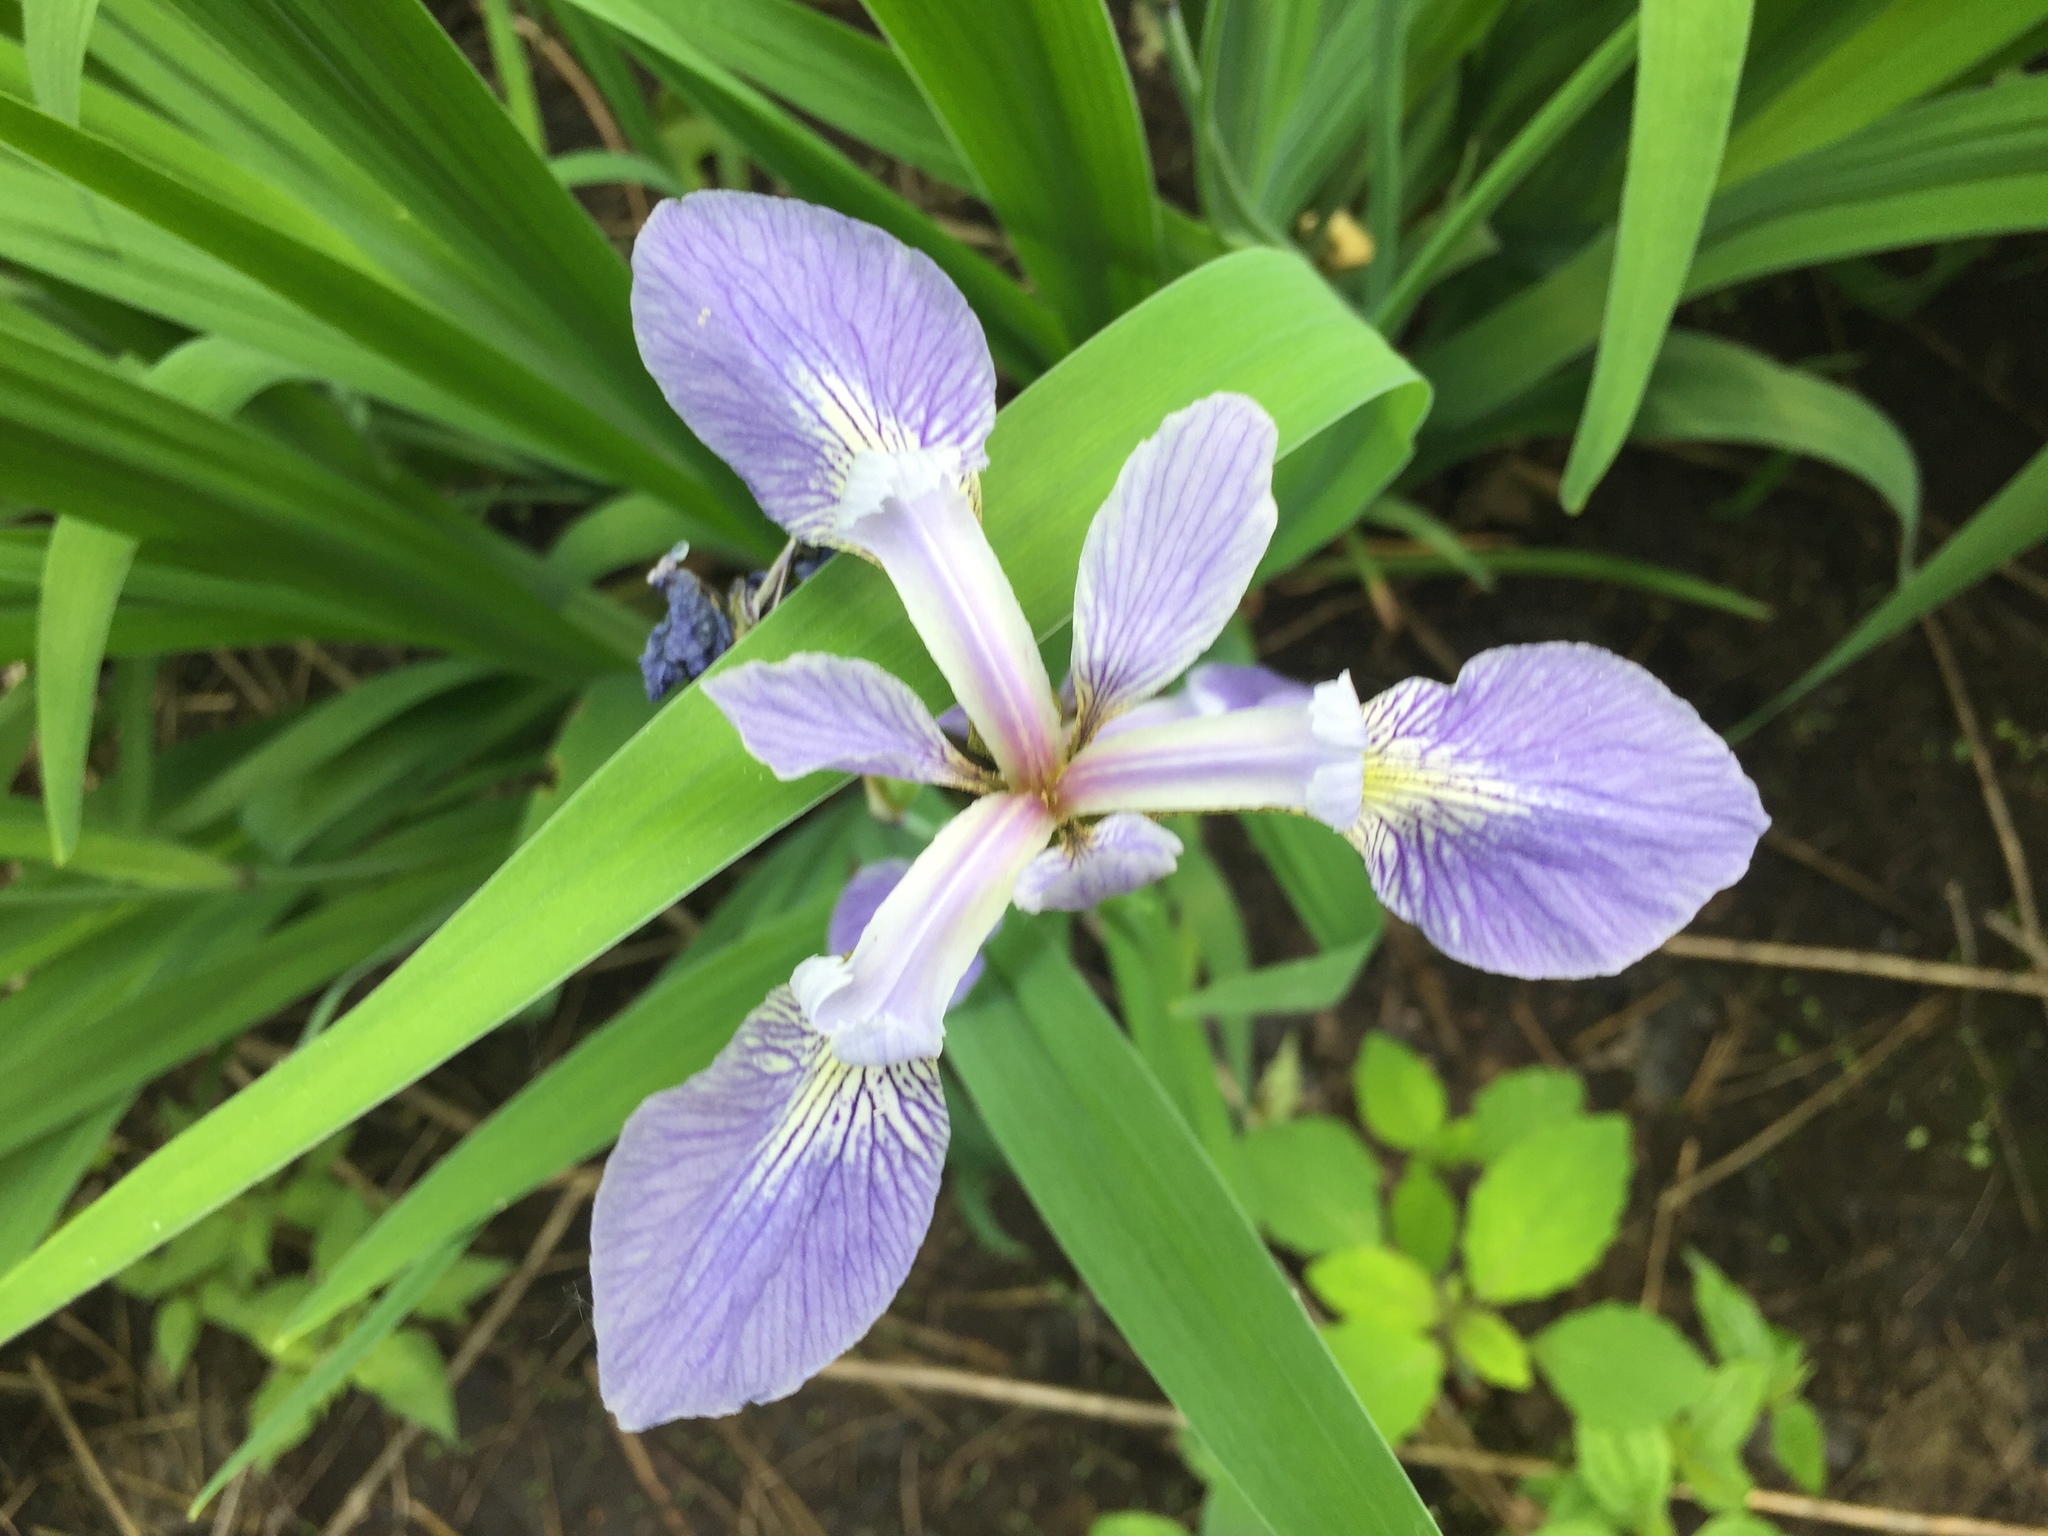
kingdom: Plantae
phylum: Tracheophyta
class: Liliopsida
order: Asparagales
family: Iridaceae
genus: Iris
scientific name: Iris versicolor
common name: Purple iris
